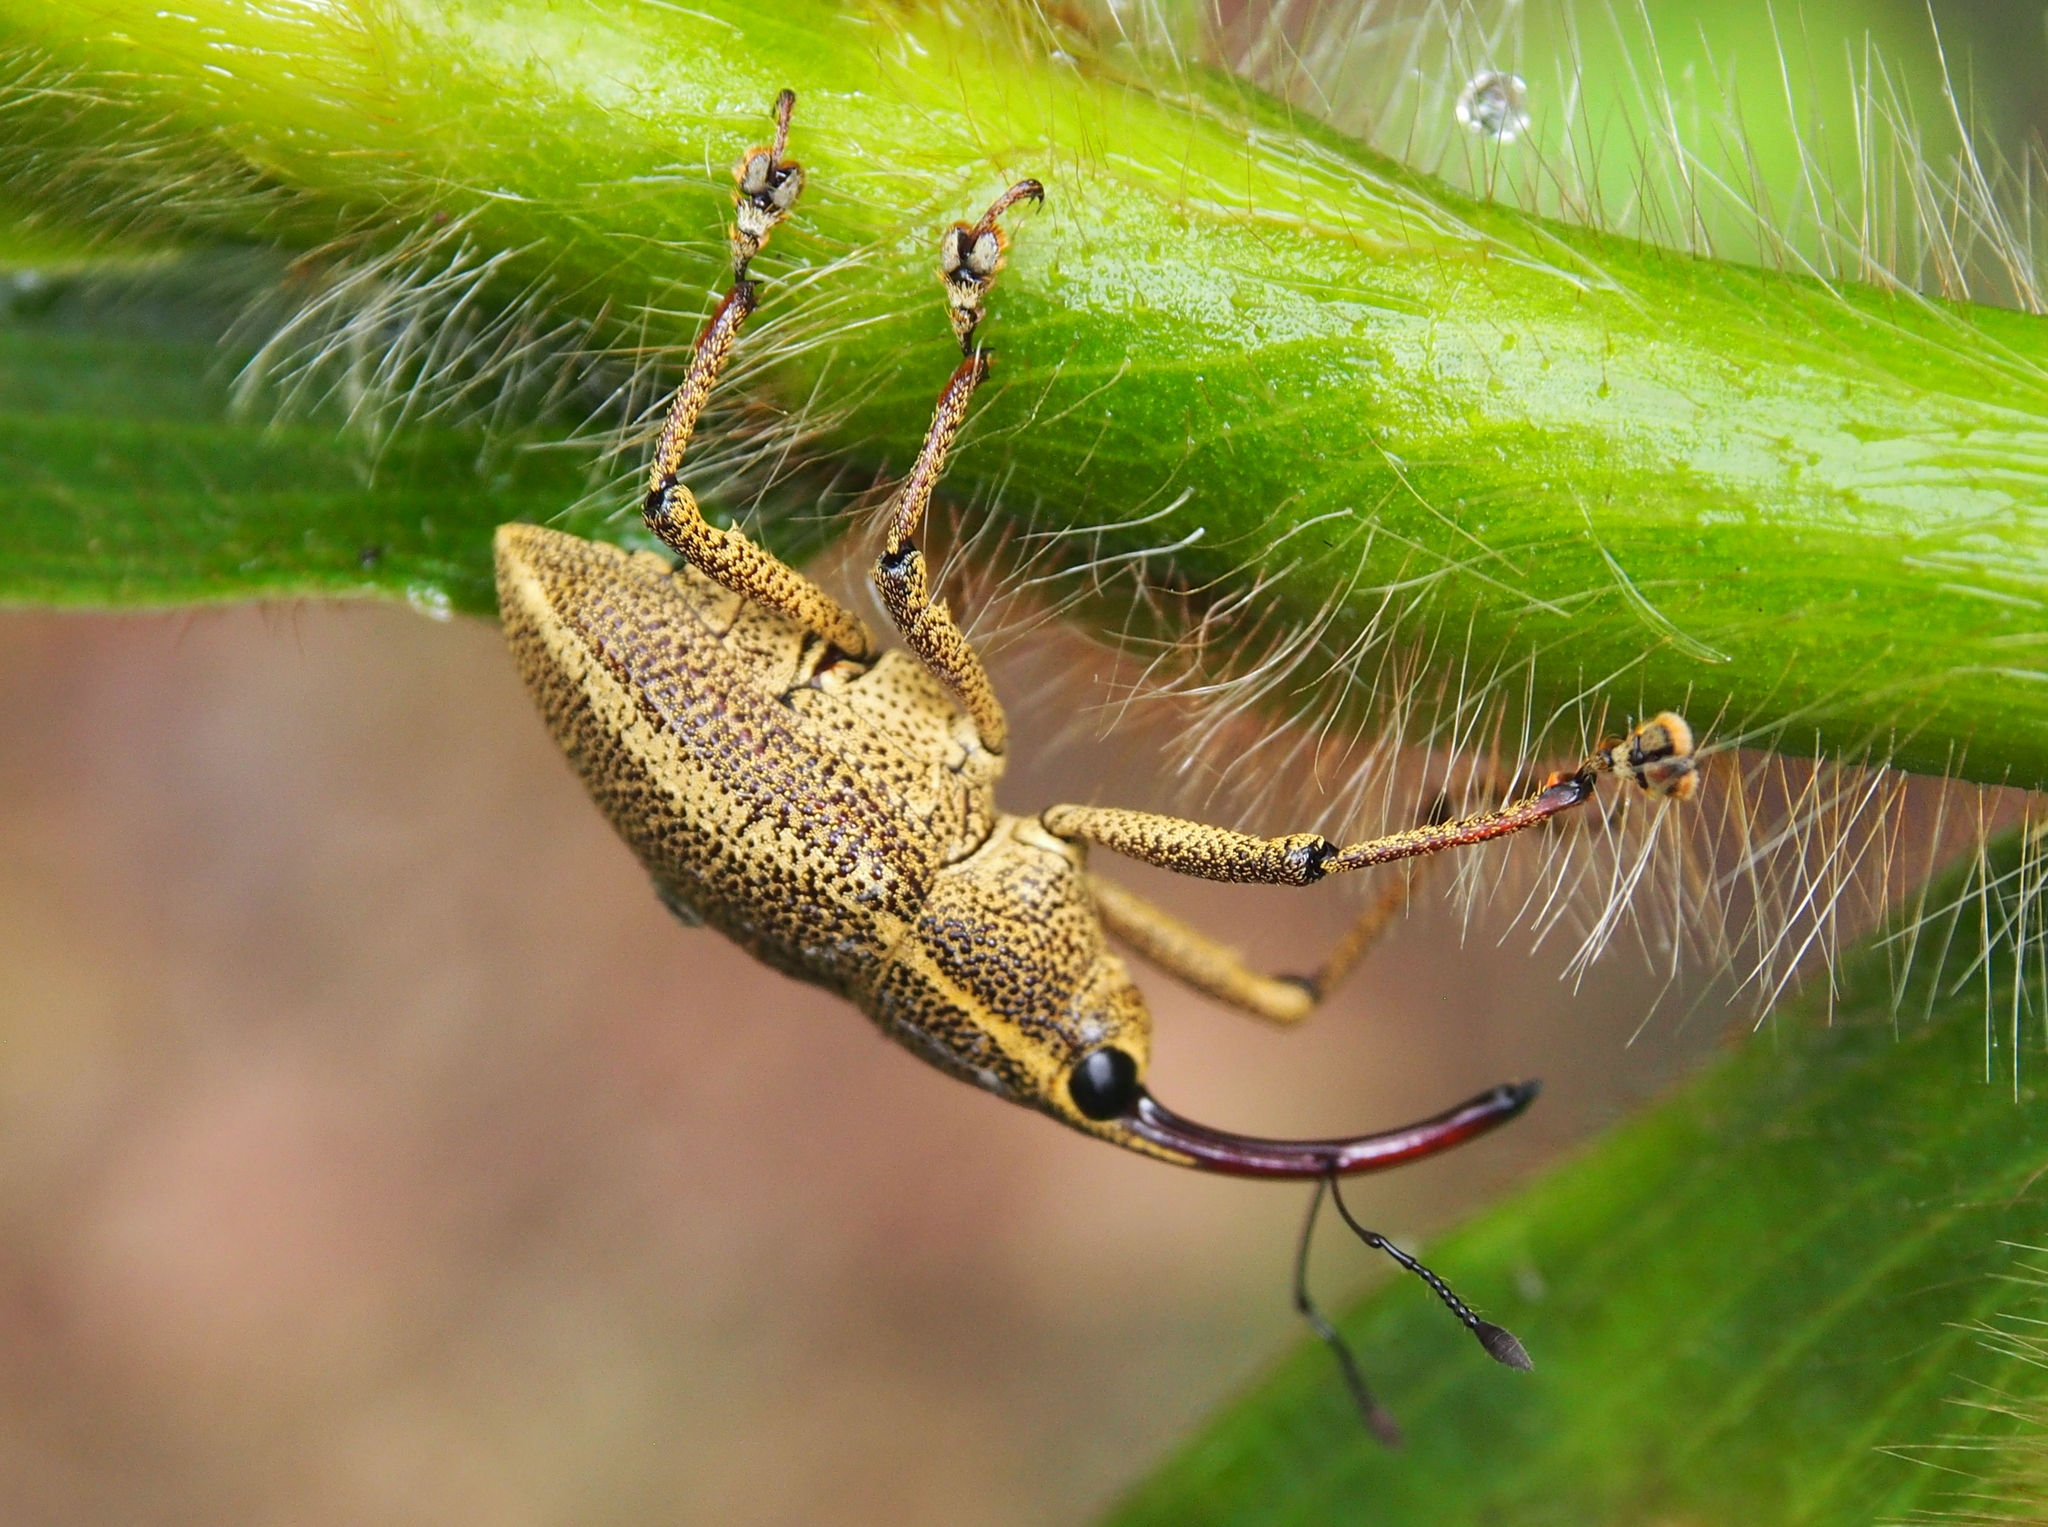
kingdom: Animalia
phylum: Arthropoda
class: Insecta
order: Coleoptera
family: Curculionidae
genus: Cholus
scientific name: Cholus cinctus
